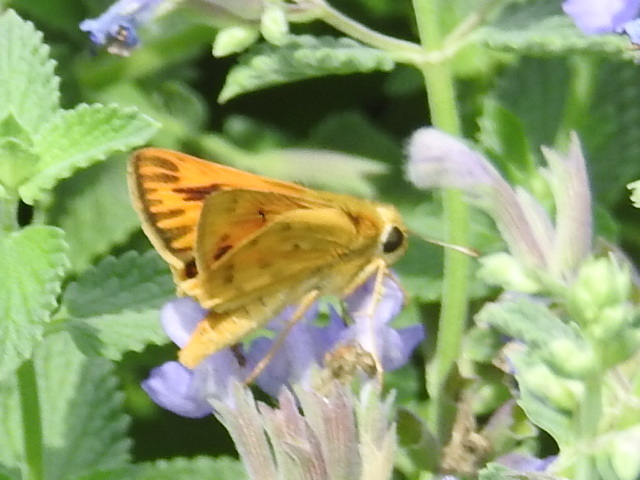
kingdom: Animalia
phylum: Arthropoda
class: Insecta
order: Lepidoptera
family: Hesperiidae
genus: Hylephila
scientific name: Hylephila phyleus
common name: Fiery skipper
